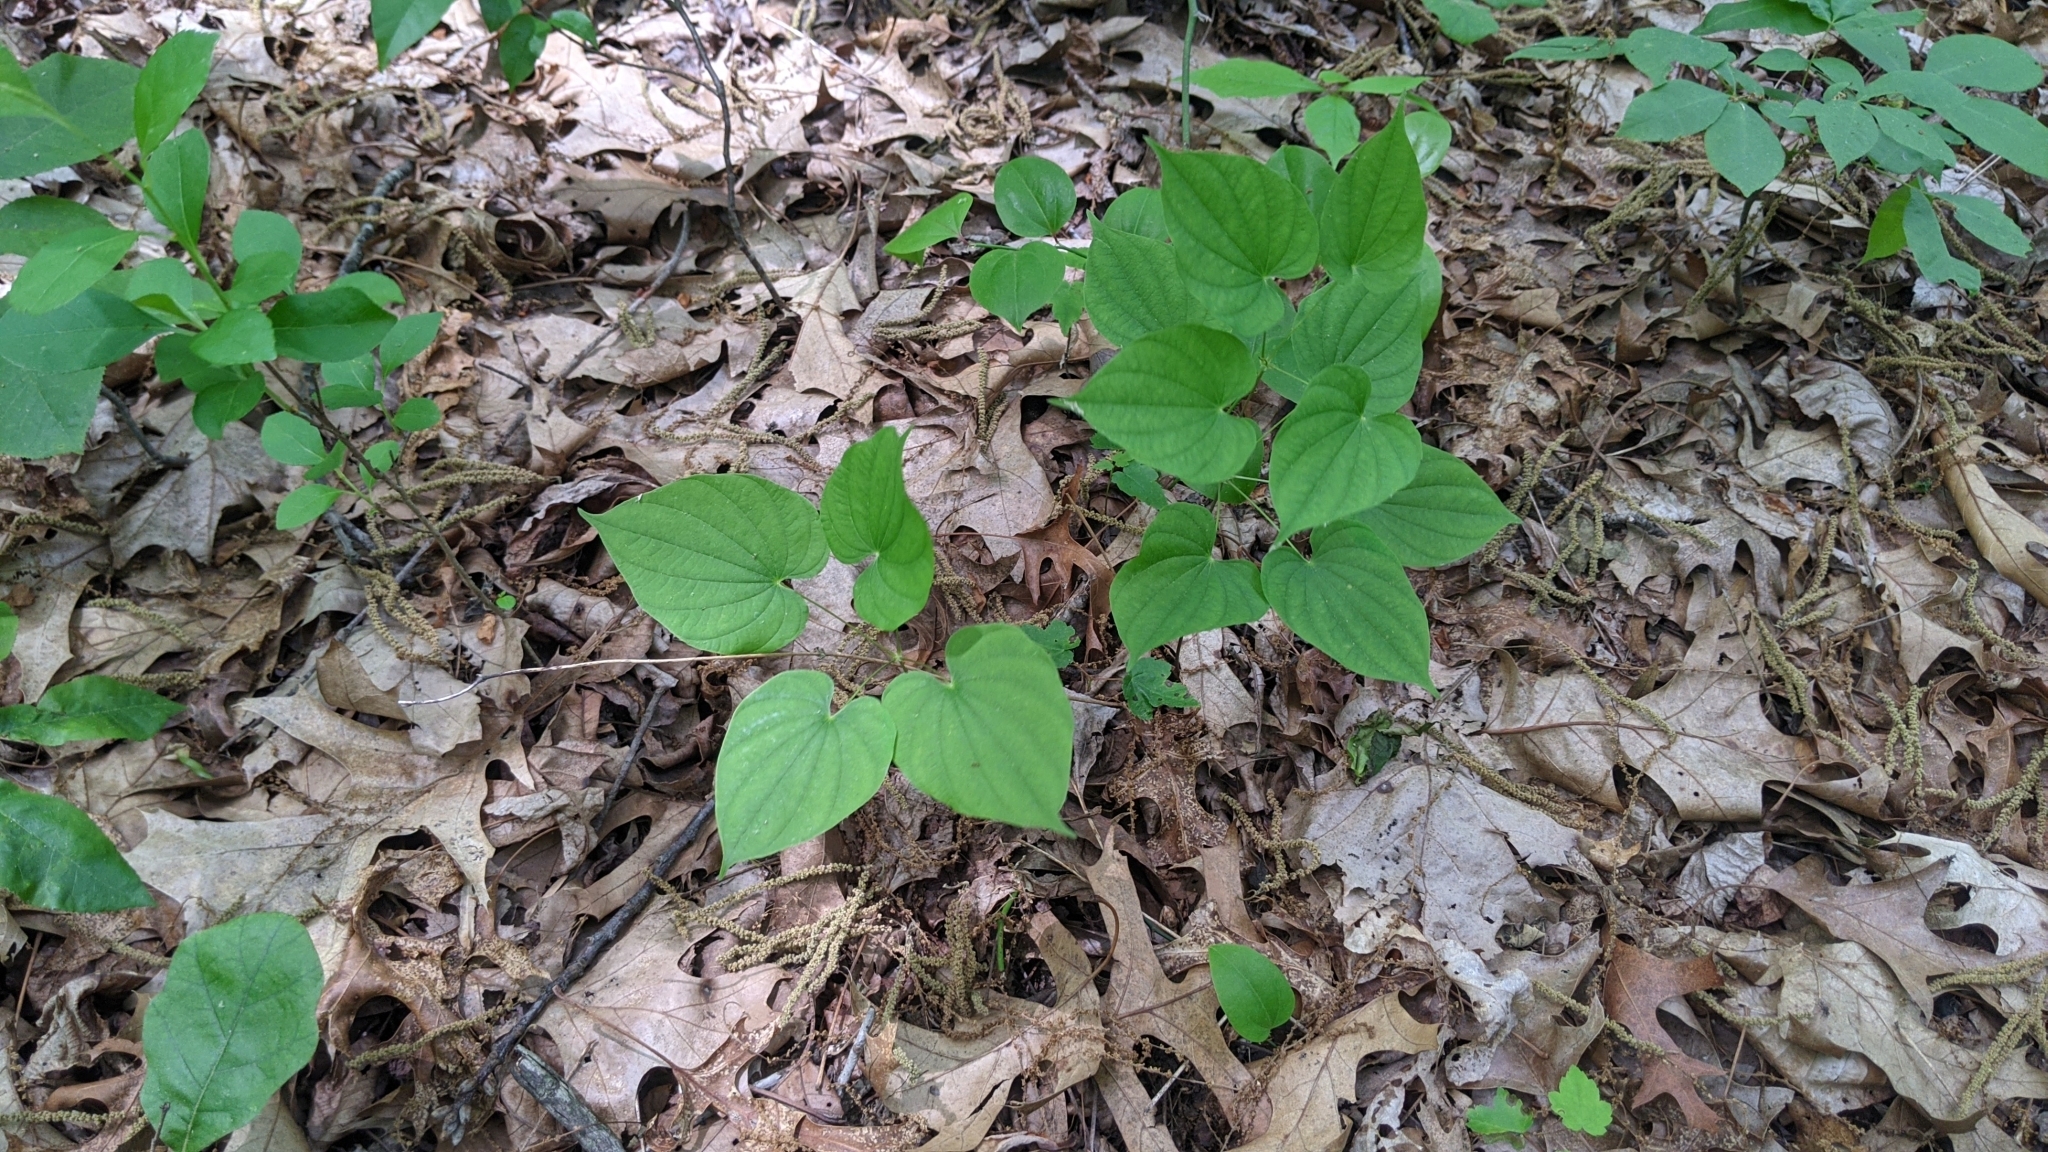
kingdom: Plantae
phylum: Tracheophyta
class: Liliopsida
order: Dioscoreales
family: Dioscoreaceae
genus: Dioscorea
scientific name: Dioscorea villosa
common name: Wild yam
